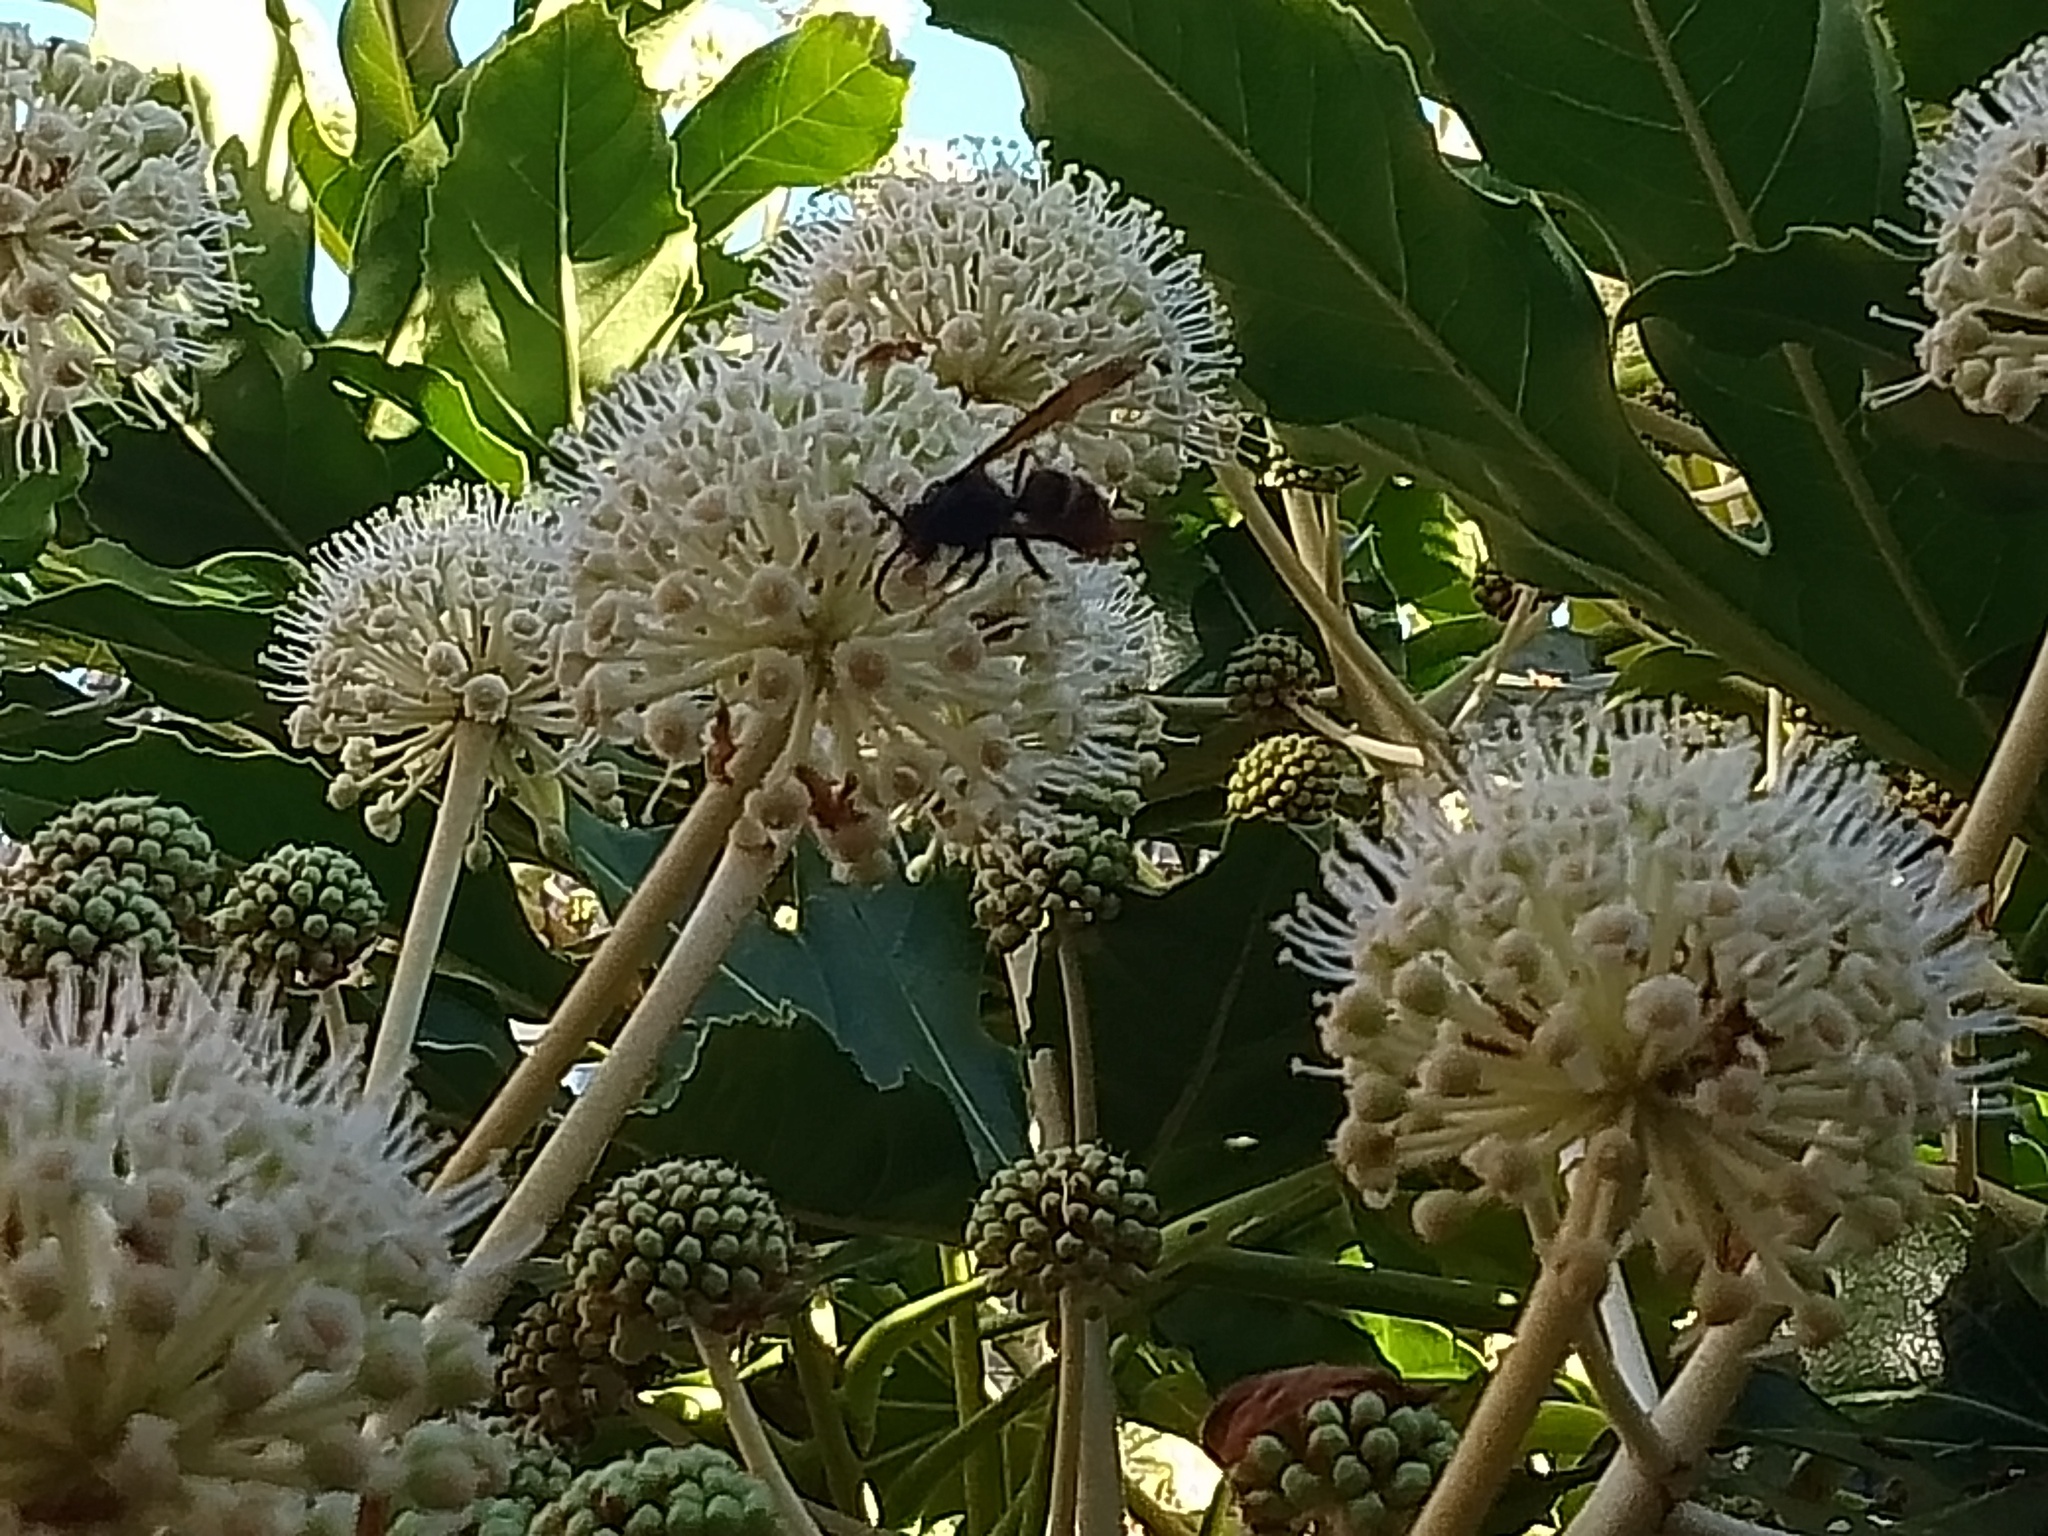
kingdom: Animalia
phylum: Arthropoda
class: Insecta
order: Hymenoptera
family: Vespidae
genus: Vespa
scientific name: Vespa velutina
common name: Asian hornet
